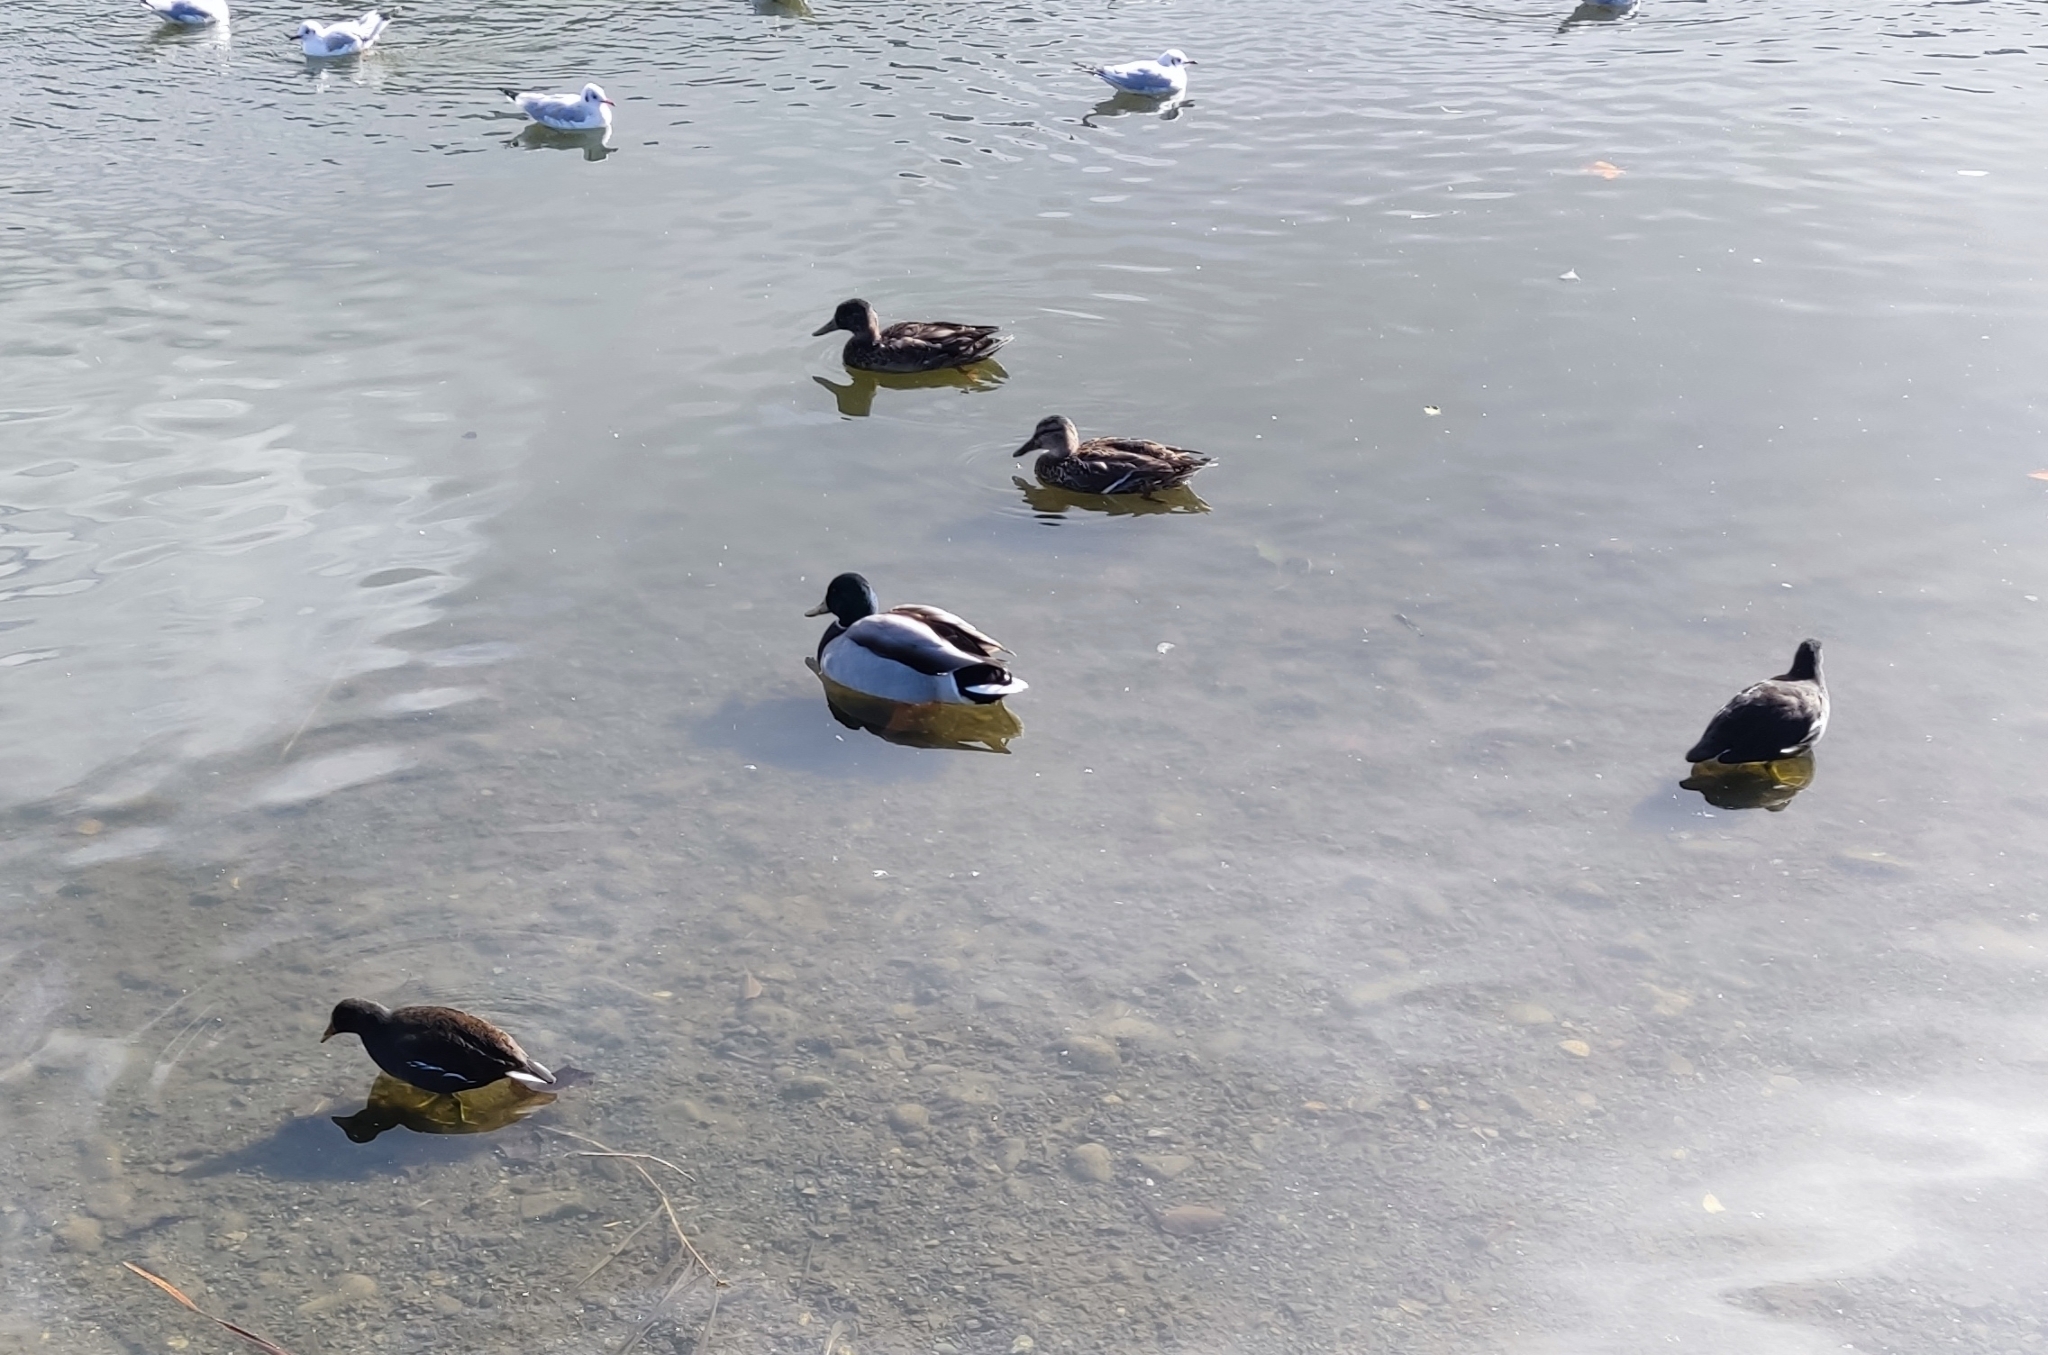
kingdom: Animalia
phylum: Chordata
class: Aves
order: Anseriformes
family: Anatidae
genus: Anas
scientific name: Anas platyrhynchos
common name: Mallard
